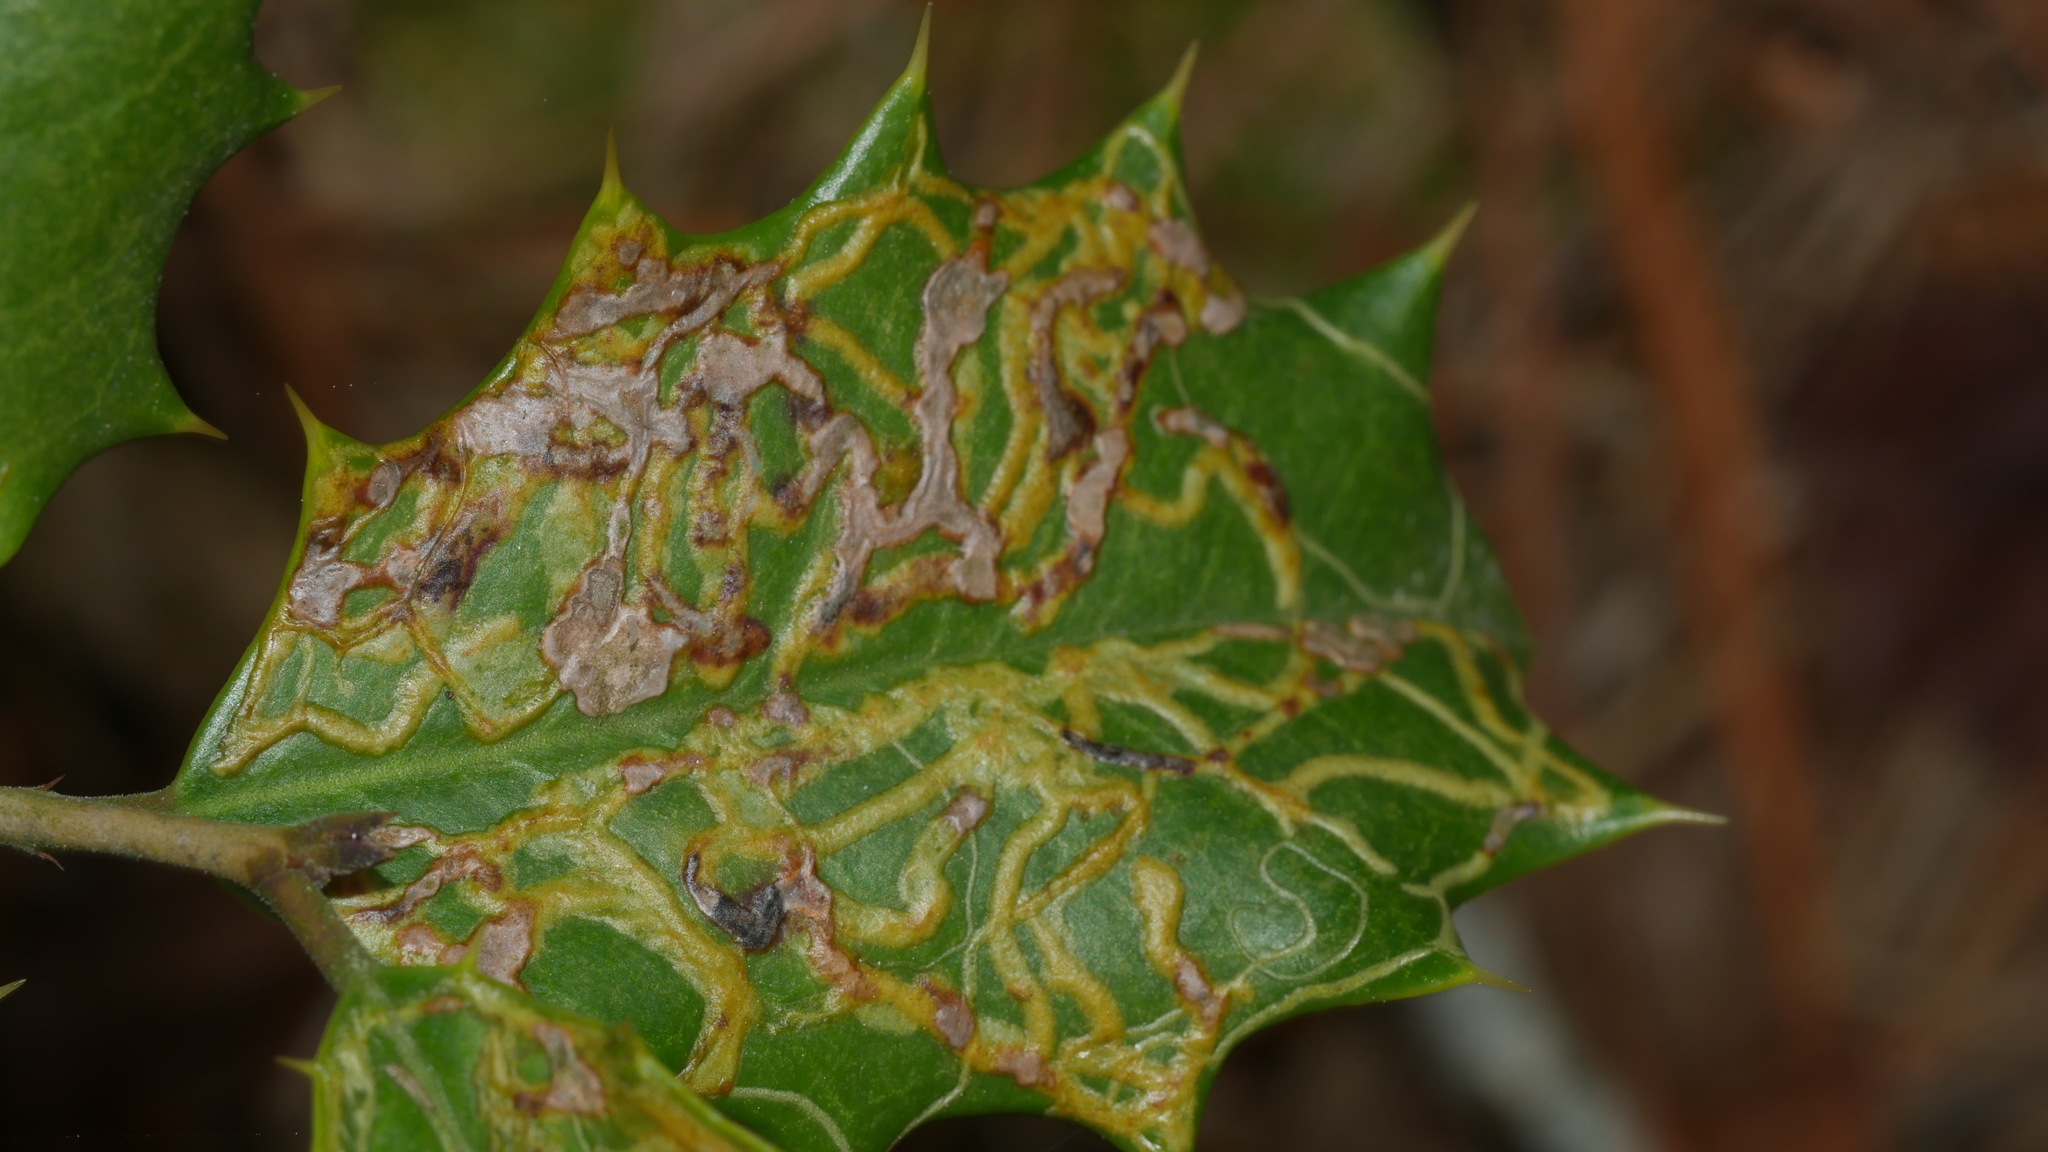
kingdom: Animalia
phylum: Arthropoda
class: Insecta
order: Diptera
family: Agromyzidae
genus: Phytomyza
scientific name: Phytomyza opacae
